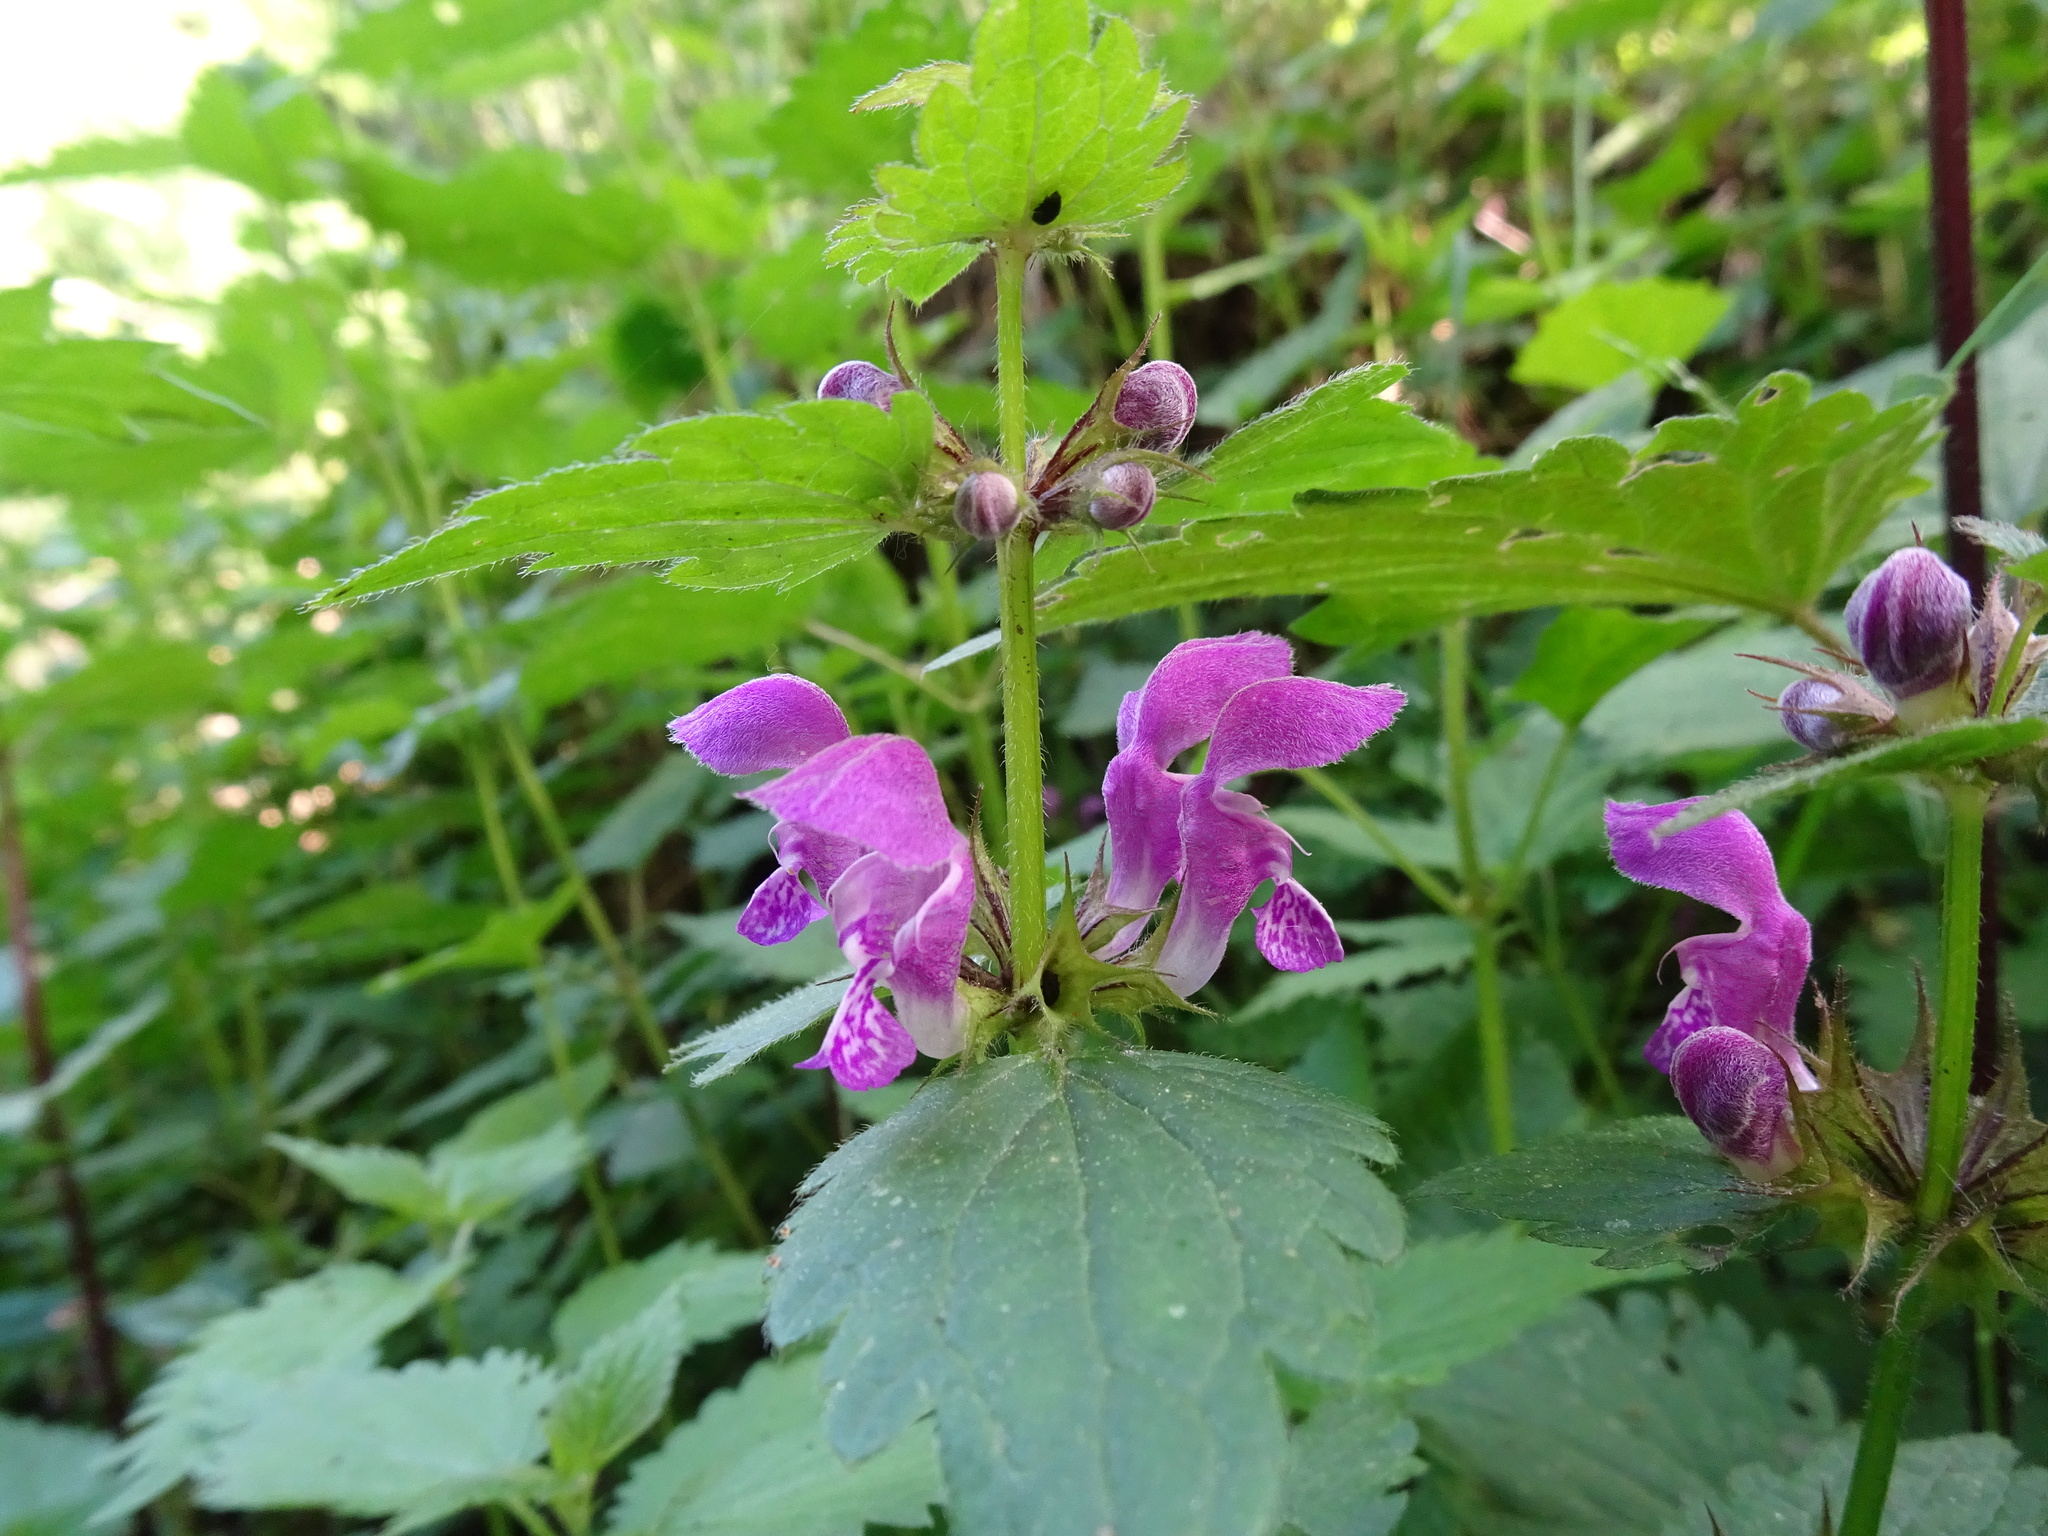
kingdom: Plantae
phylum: Tracheophyta
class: Magnoliopsida
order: Lamiales
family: Lamiaceae
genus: Lamium
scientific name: Lamium maculatum
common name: Spotted dead-nettle
